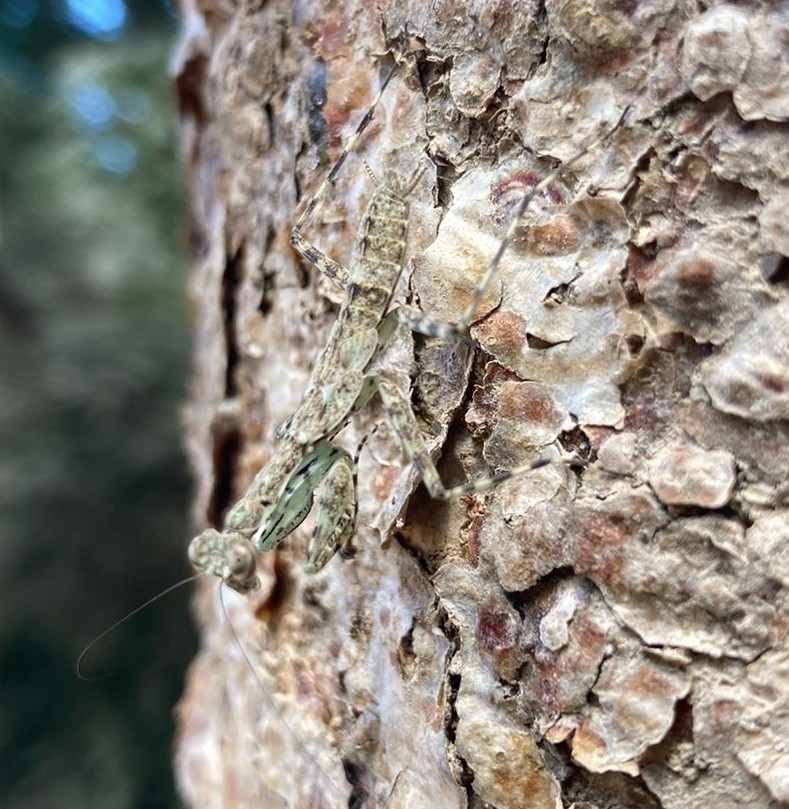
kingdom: Animalia
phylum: Arthropoda
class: Insecta
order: Mantodea
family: Liturgusidae
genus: Liturgusa
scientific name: Liturgusa maya
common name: Mantis
